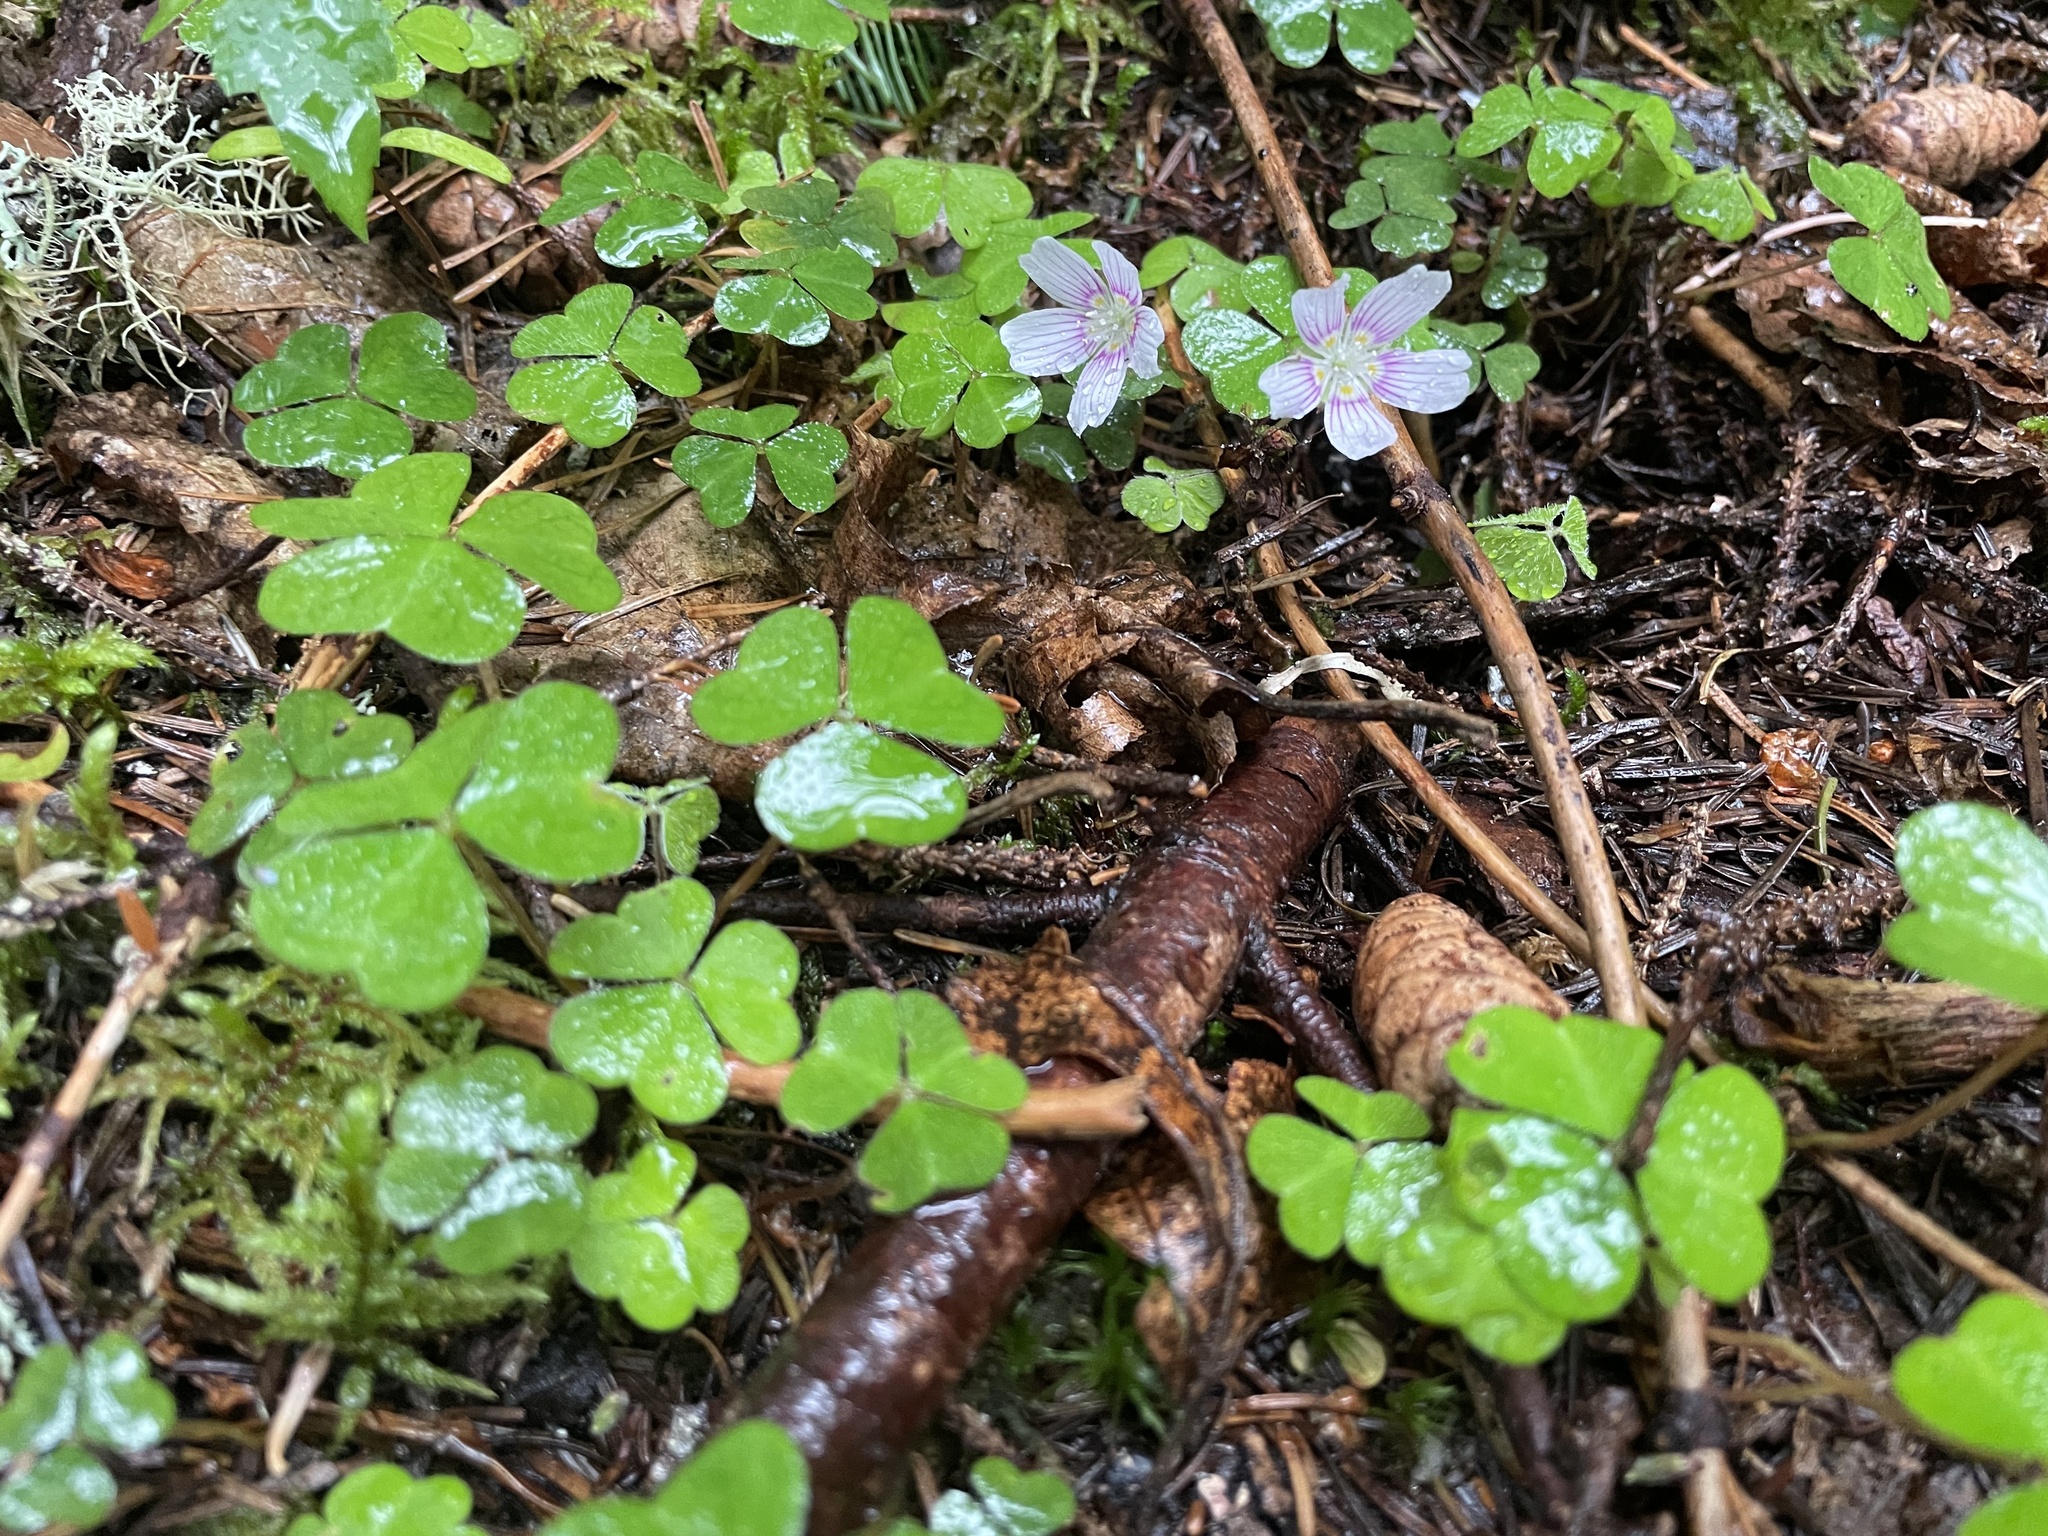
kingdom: Plantae
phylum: Tracheophyta
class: Magnoliopsida
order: Oxalidales
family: Oxalidaceae
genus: Oxalis
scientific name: Oxalis montana
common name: American wood-sorrel
